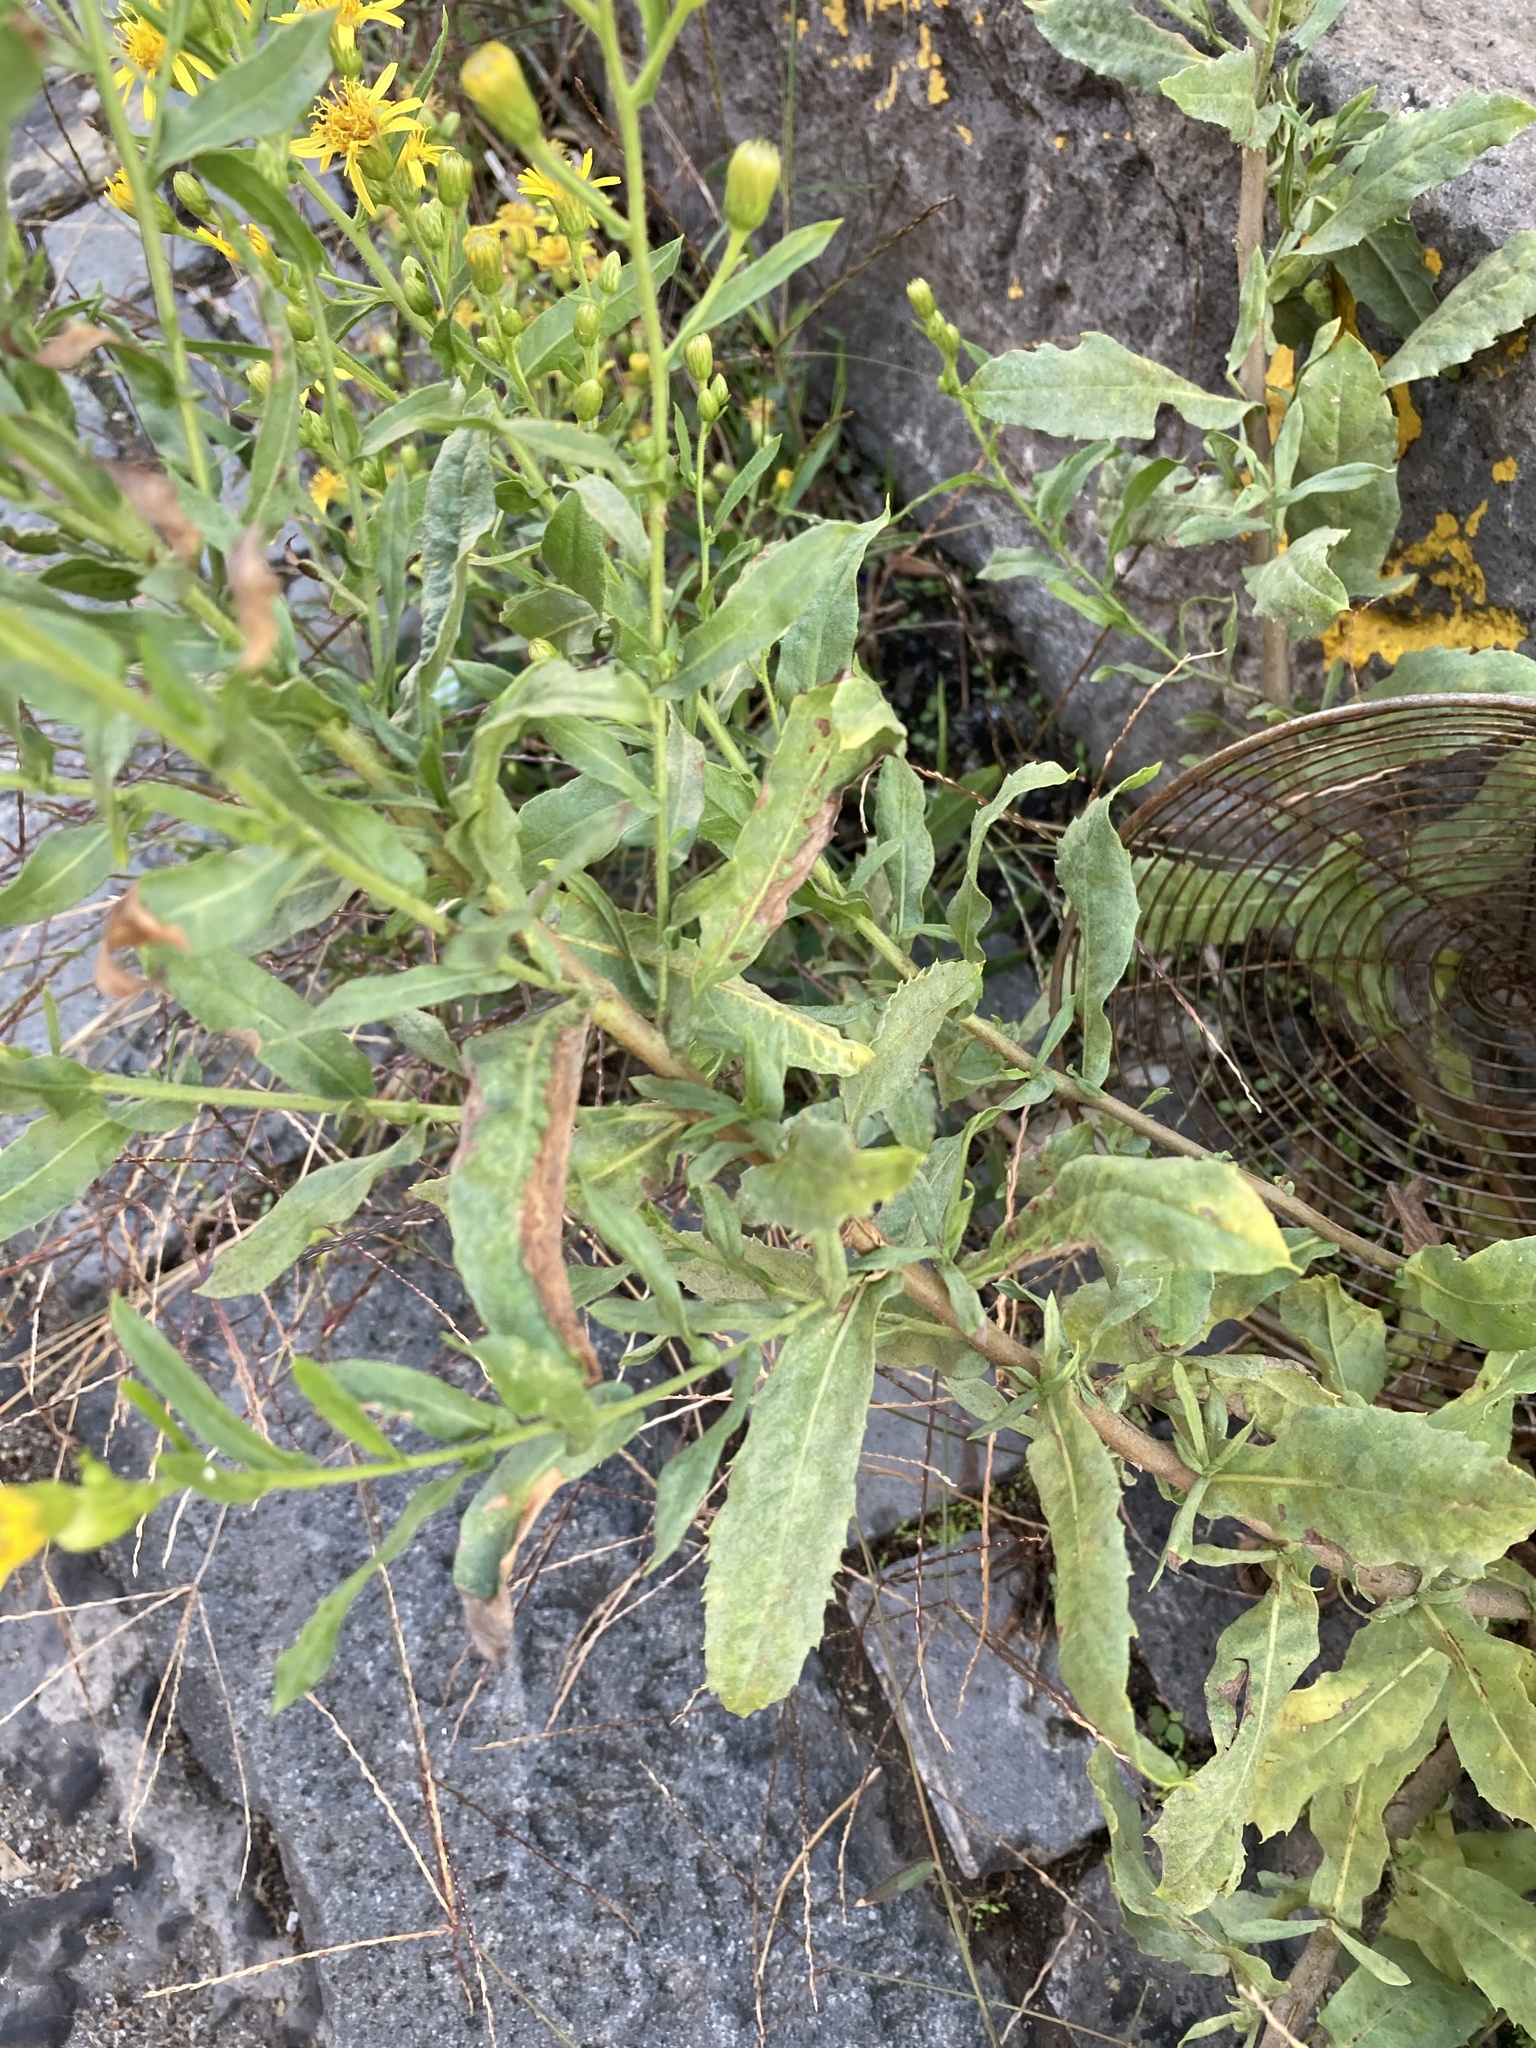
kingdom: Plantae
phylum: Tracheophyta
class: Magnoliopsida
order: Asterales
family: Asteraceae
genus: Dittrichia
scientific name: Dittrichia viscosa
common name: Woody fleabane
